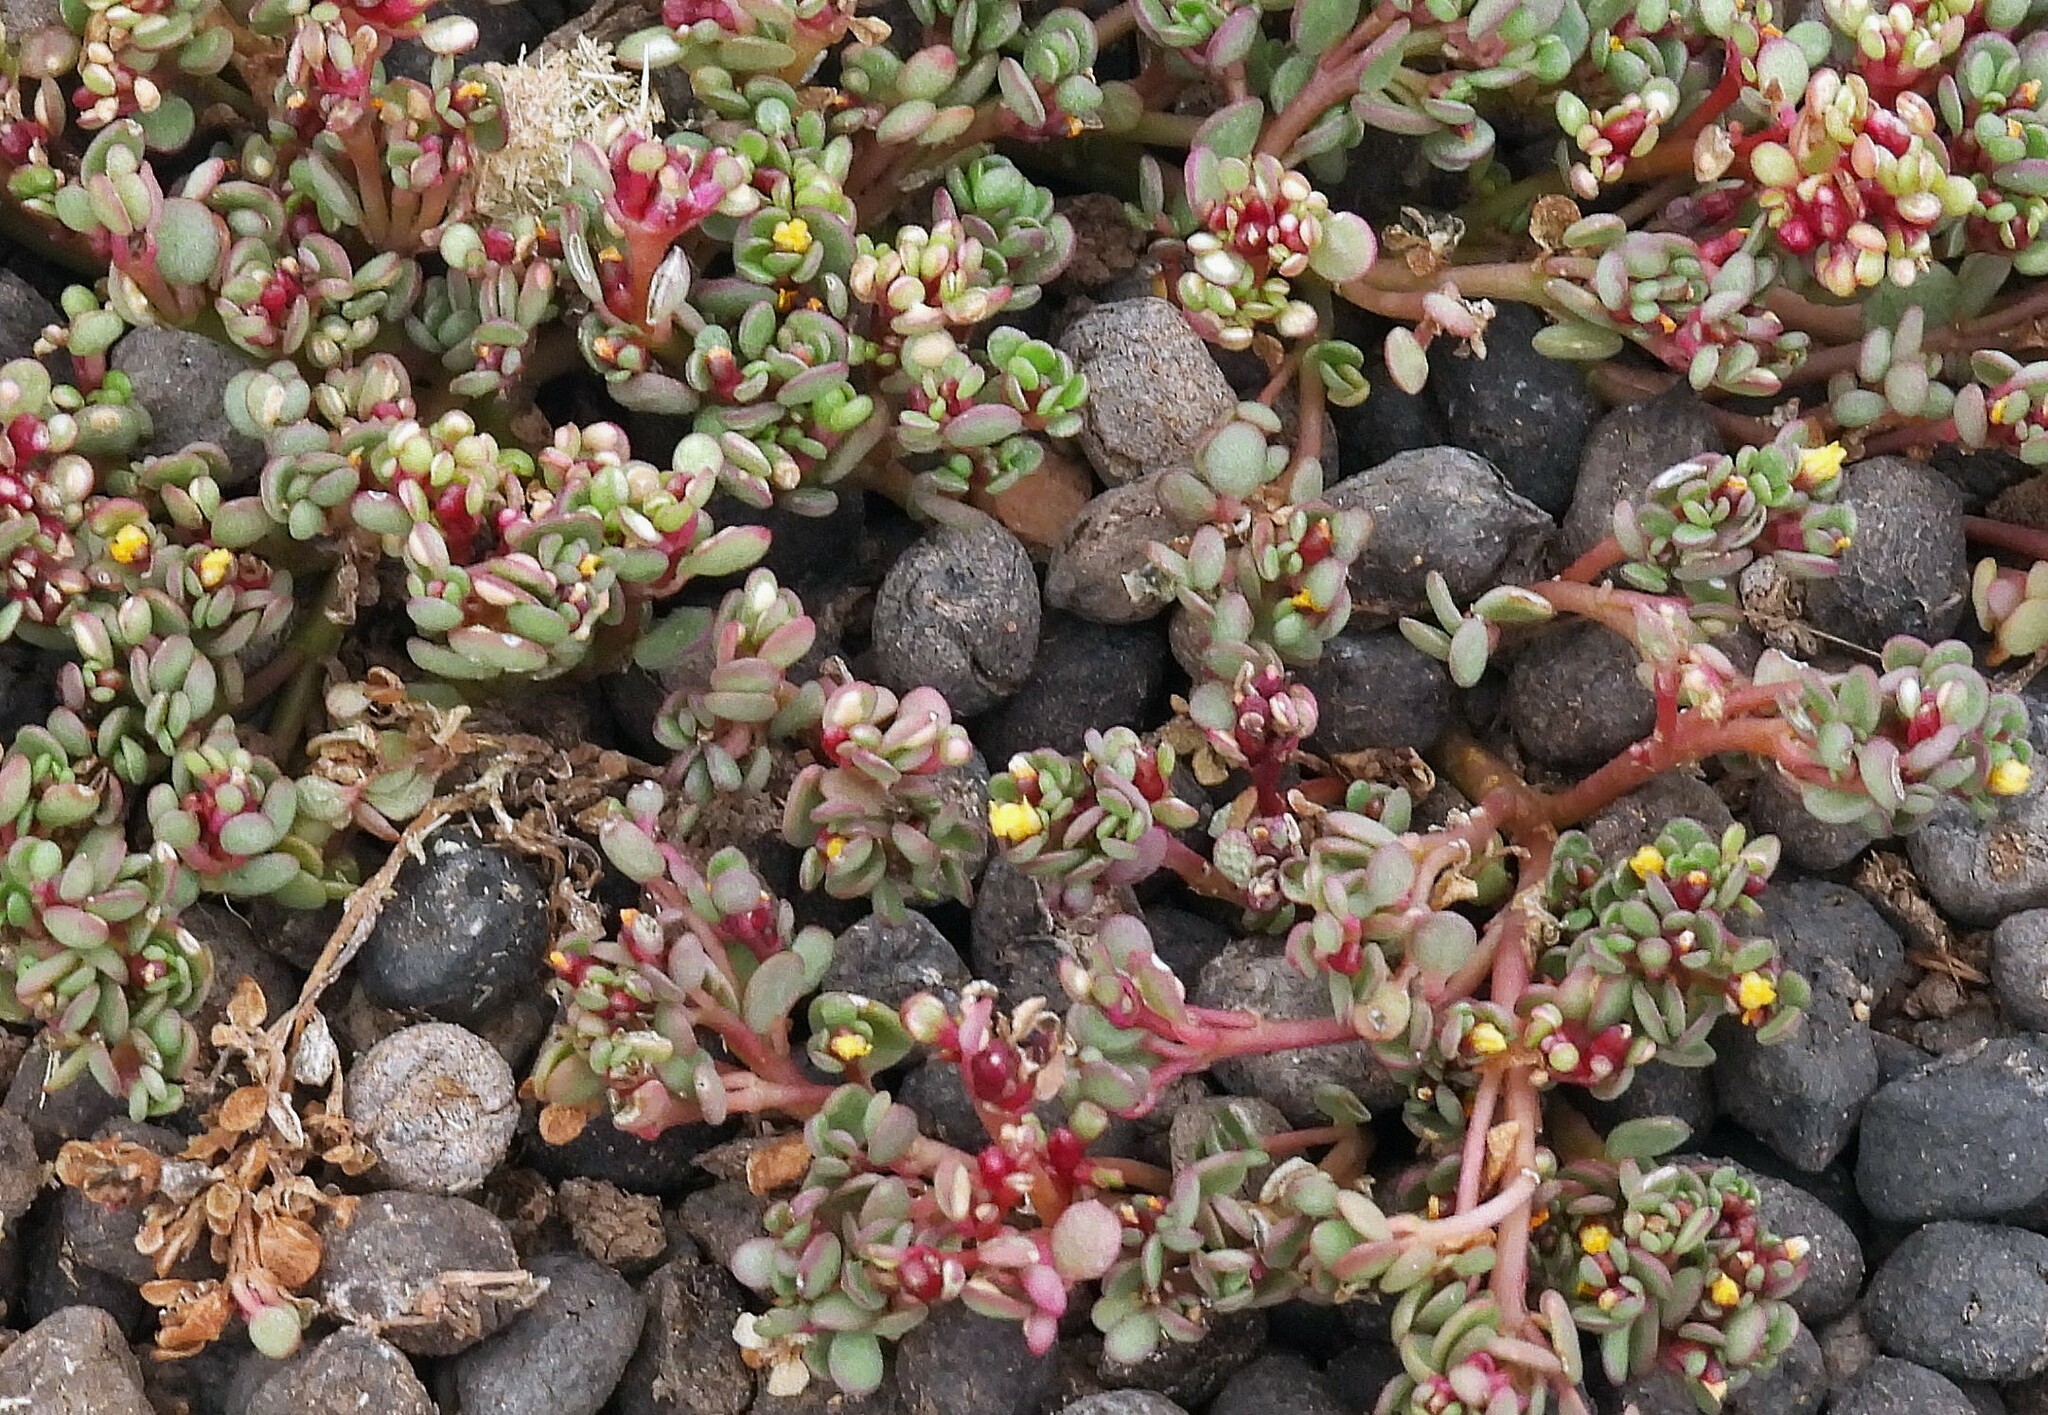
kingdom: Plantae
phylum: Tracheophyta
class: Magnoliopsida
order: Caryophyllales
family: Portulacaceae
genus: Portulaca
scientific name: Portulaca rotundifolia
